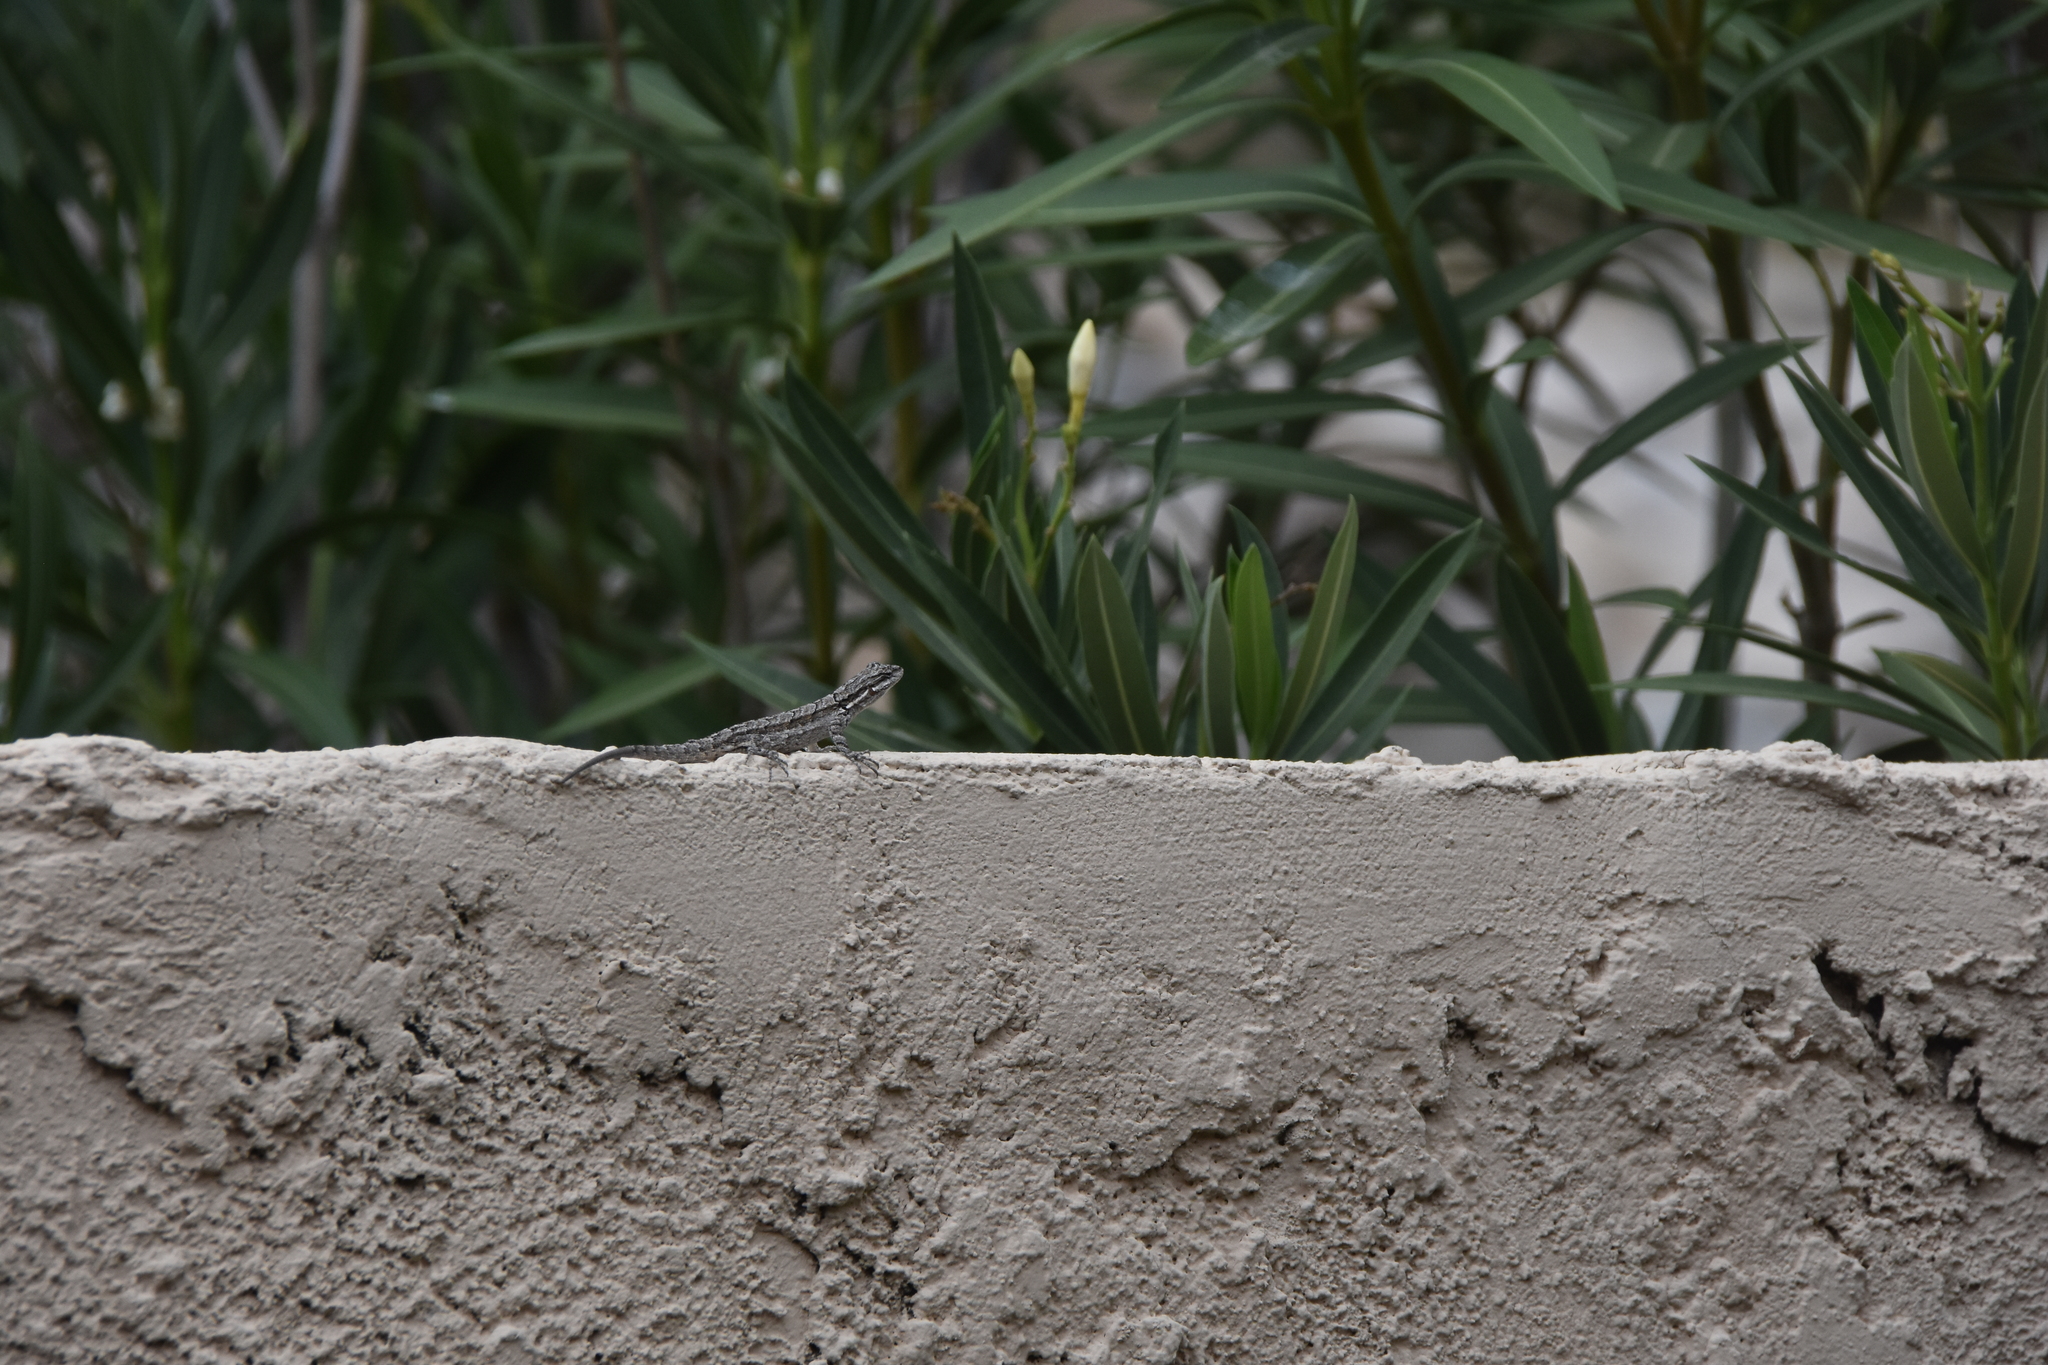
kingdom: Animalia
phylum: Chordata
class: Squamata
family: Phrynosomatidae
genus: Urosaurus
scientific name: Urosaurus ornatus
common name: Ornate tree lizard
